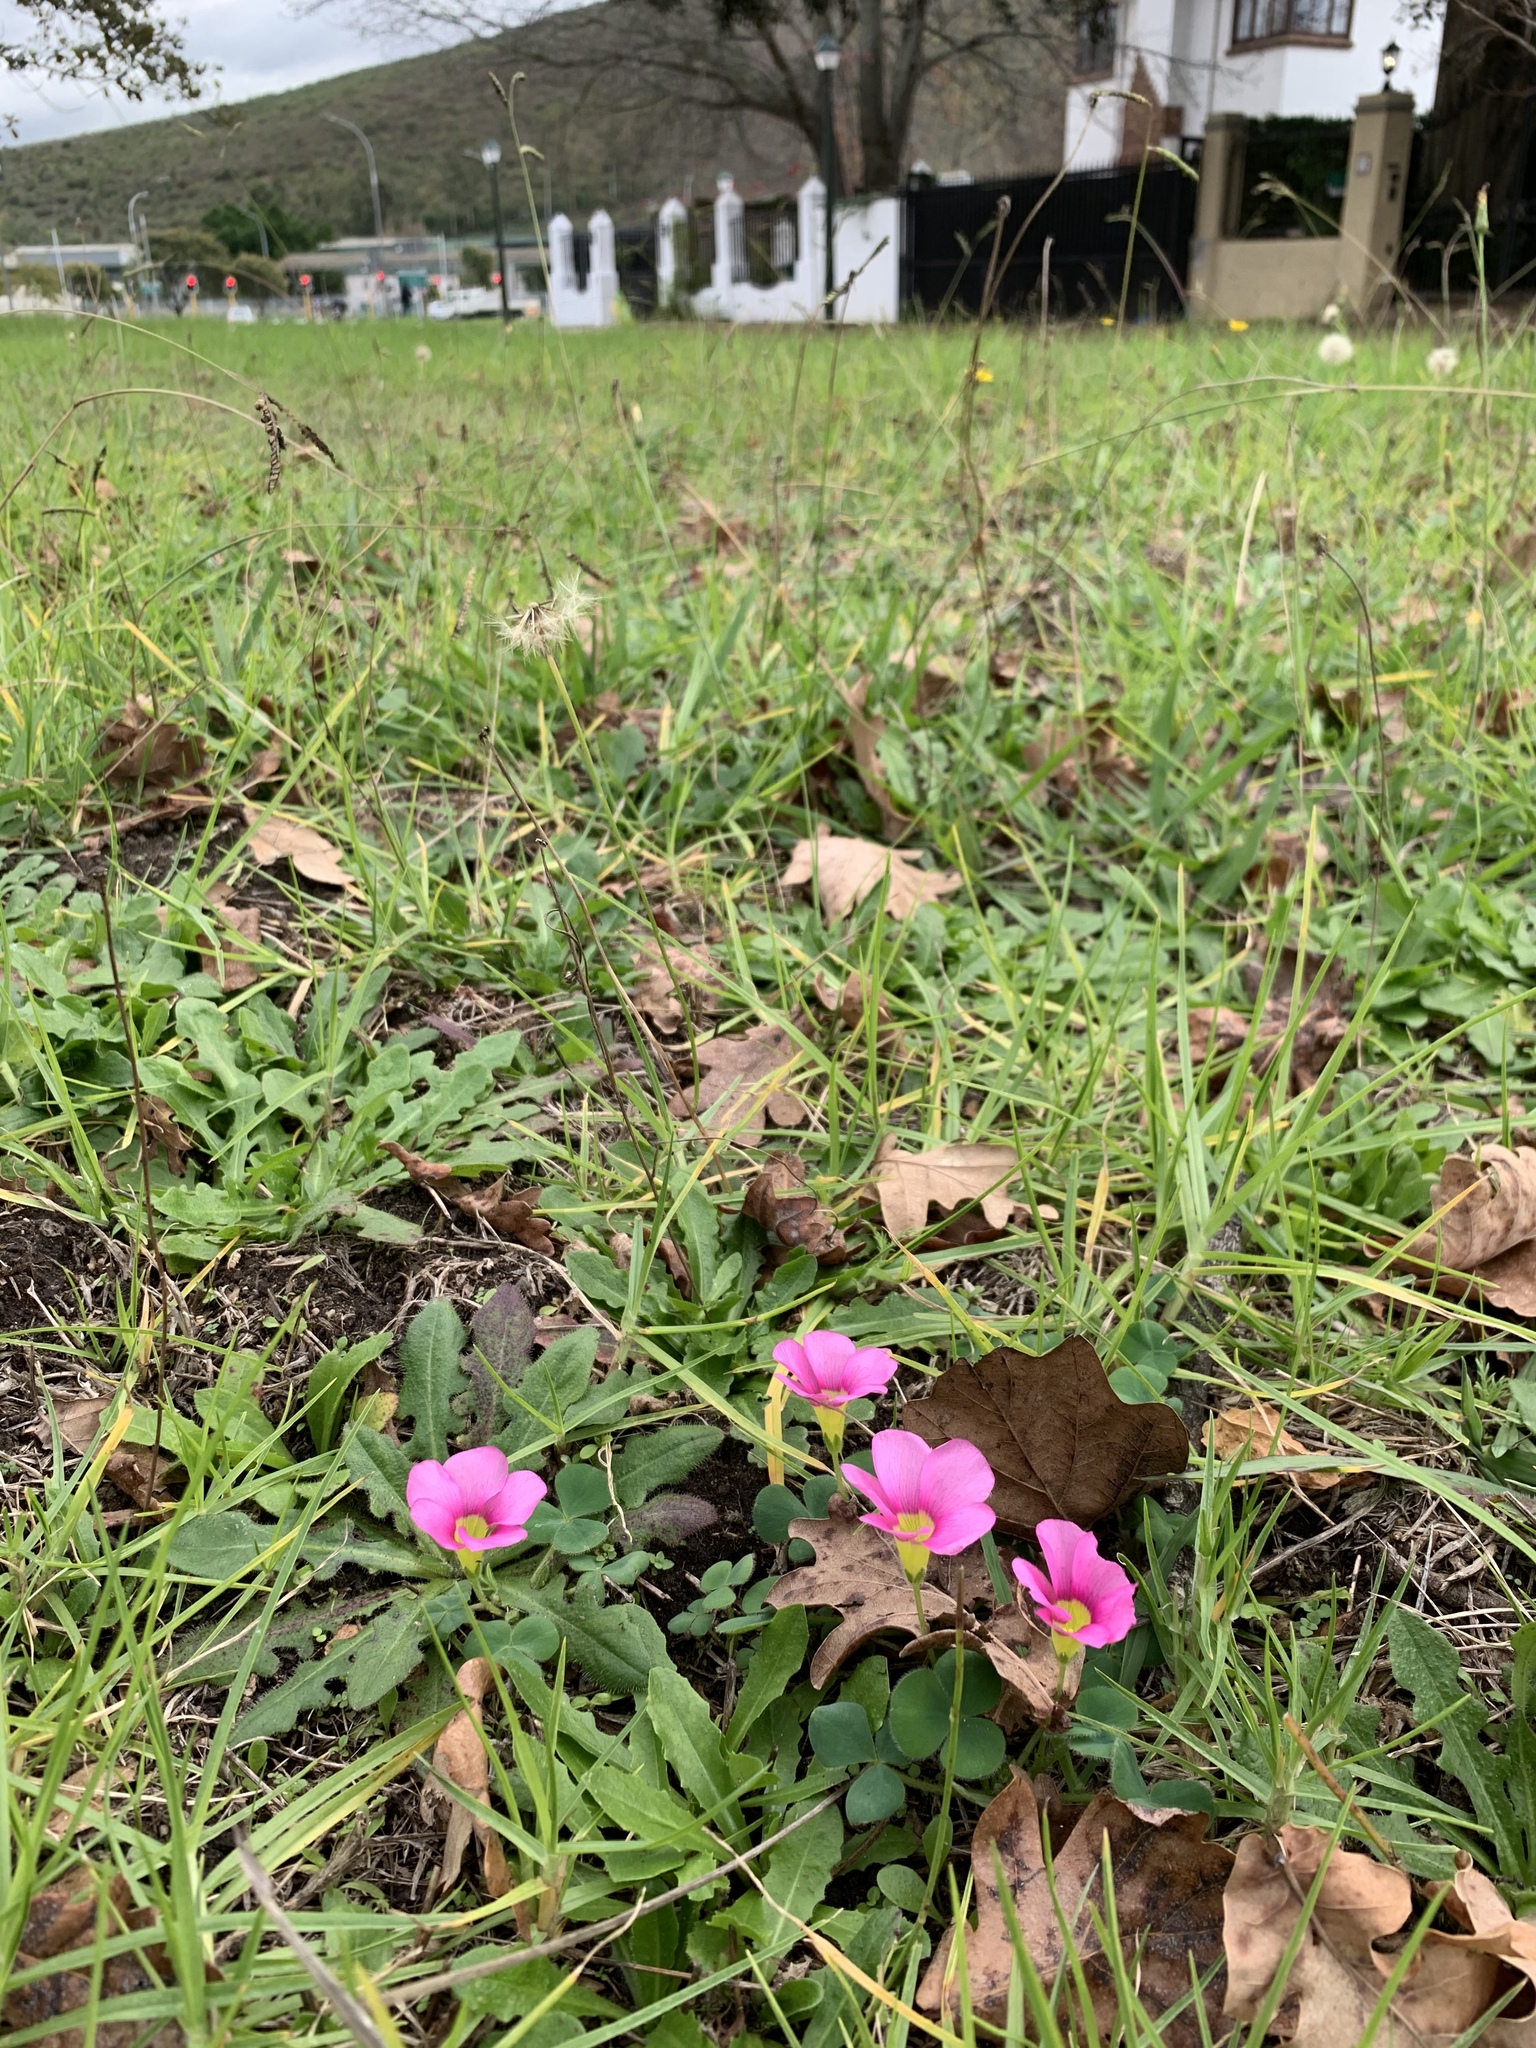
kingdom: Plantae
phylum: Tracheophyta
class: Magnoliopsida
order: Oxalidales
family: Oxalidaceae
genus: Oxalis
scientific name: Oxalis purpurea
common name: Purple woodsorrel
